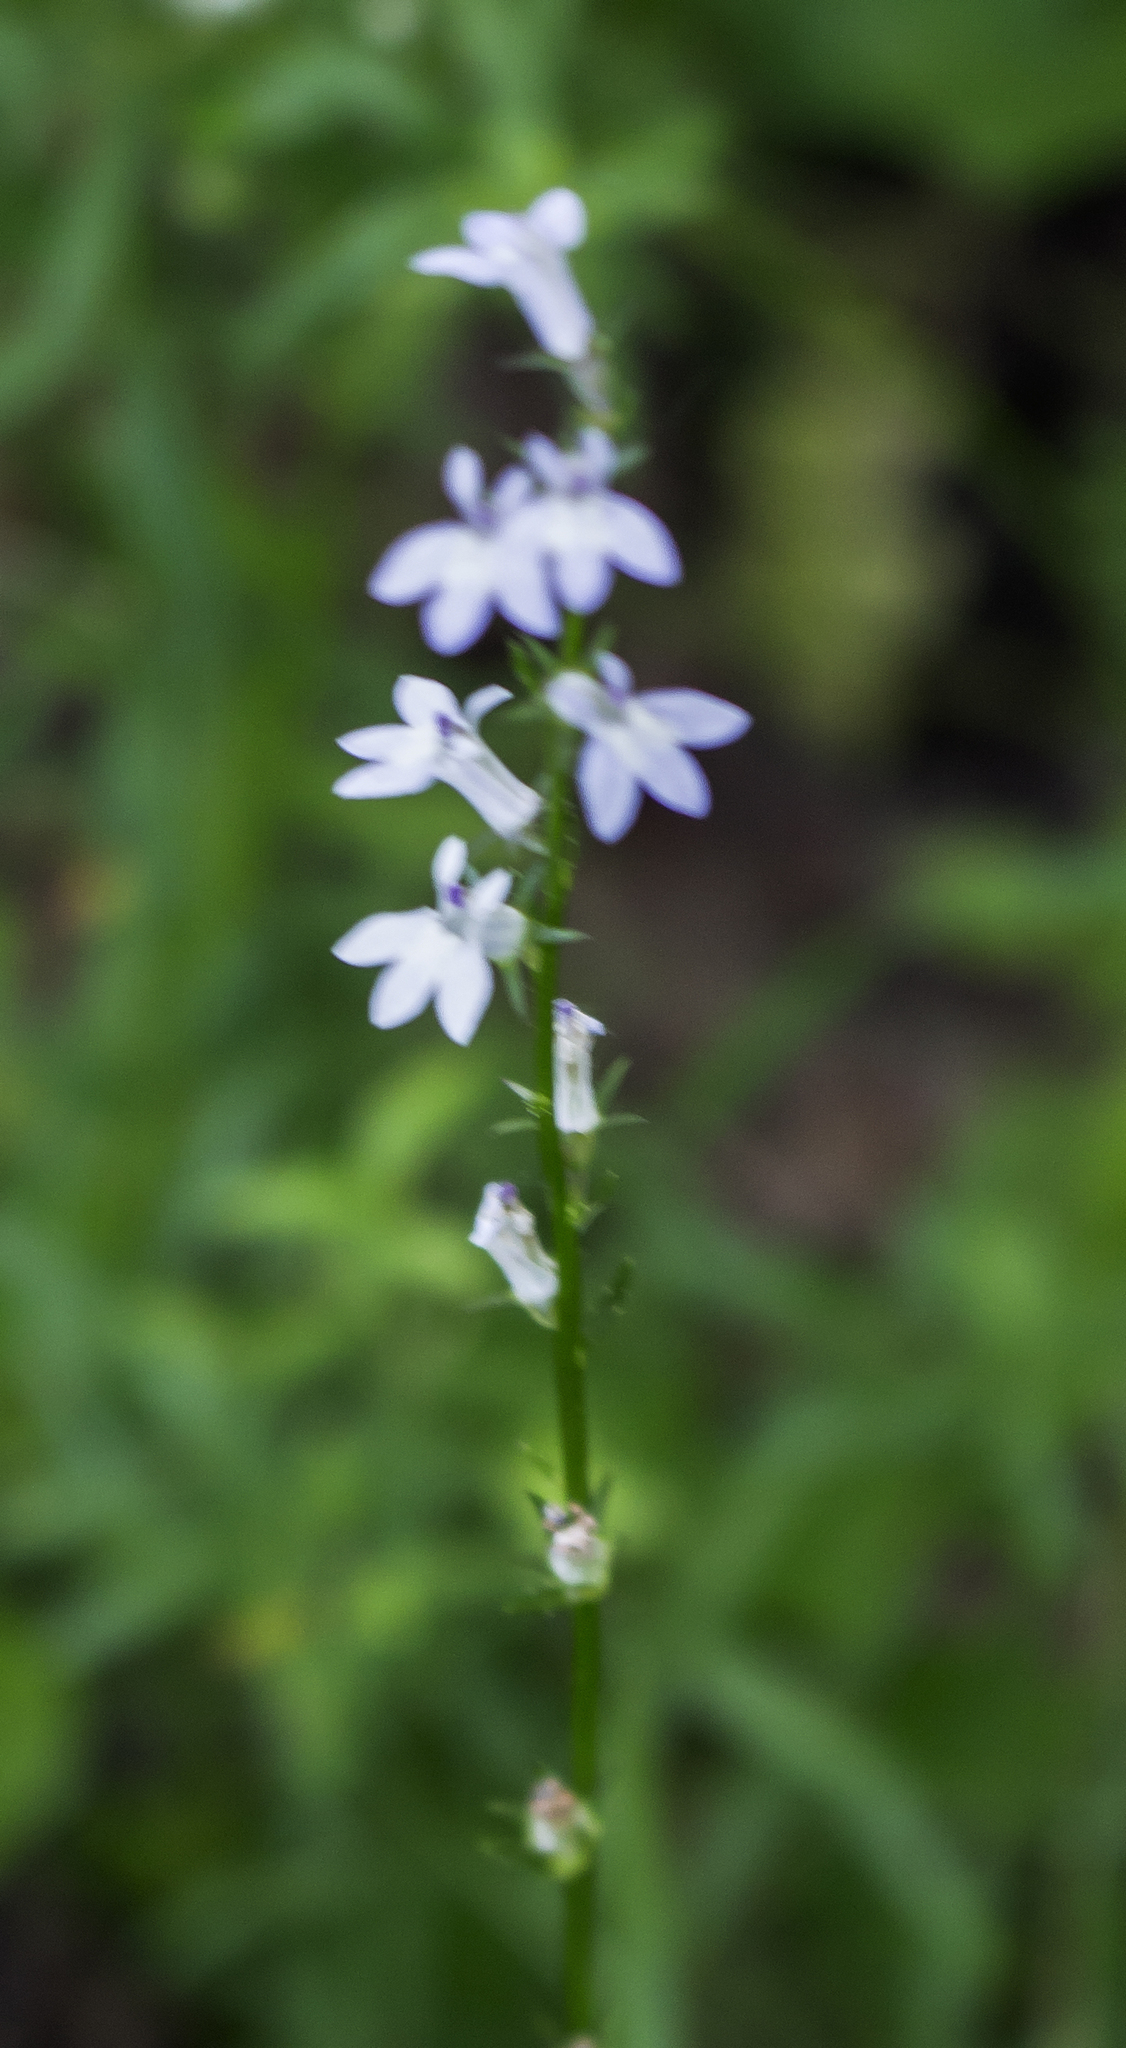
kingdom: Plantae
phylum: Tracheophyta
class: Magnoliopsida
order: Asterales
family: Campanulaceae
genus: Lobelia
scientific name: Lobelia spicata
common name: Pale-spike lobelia
